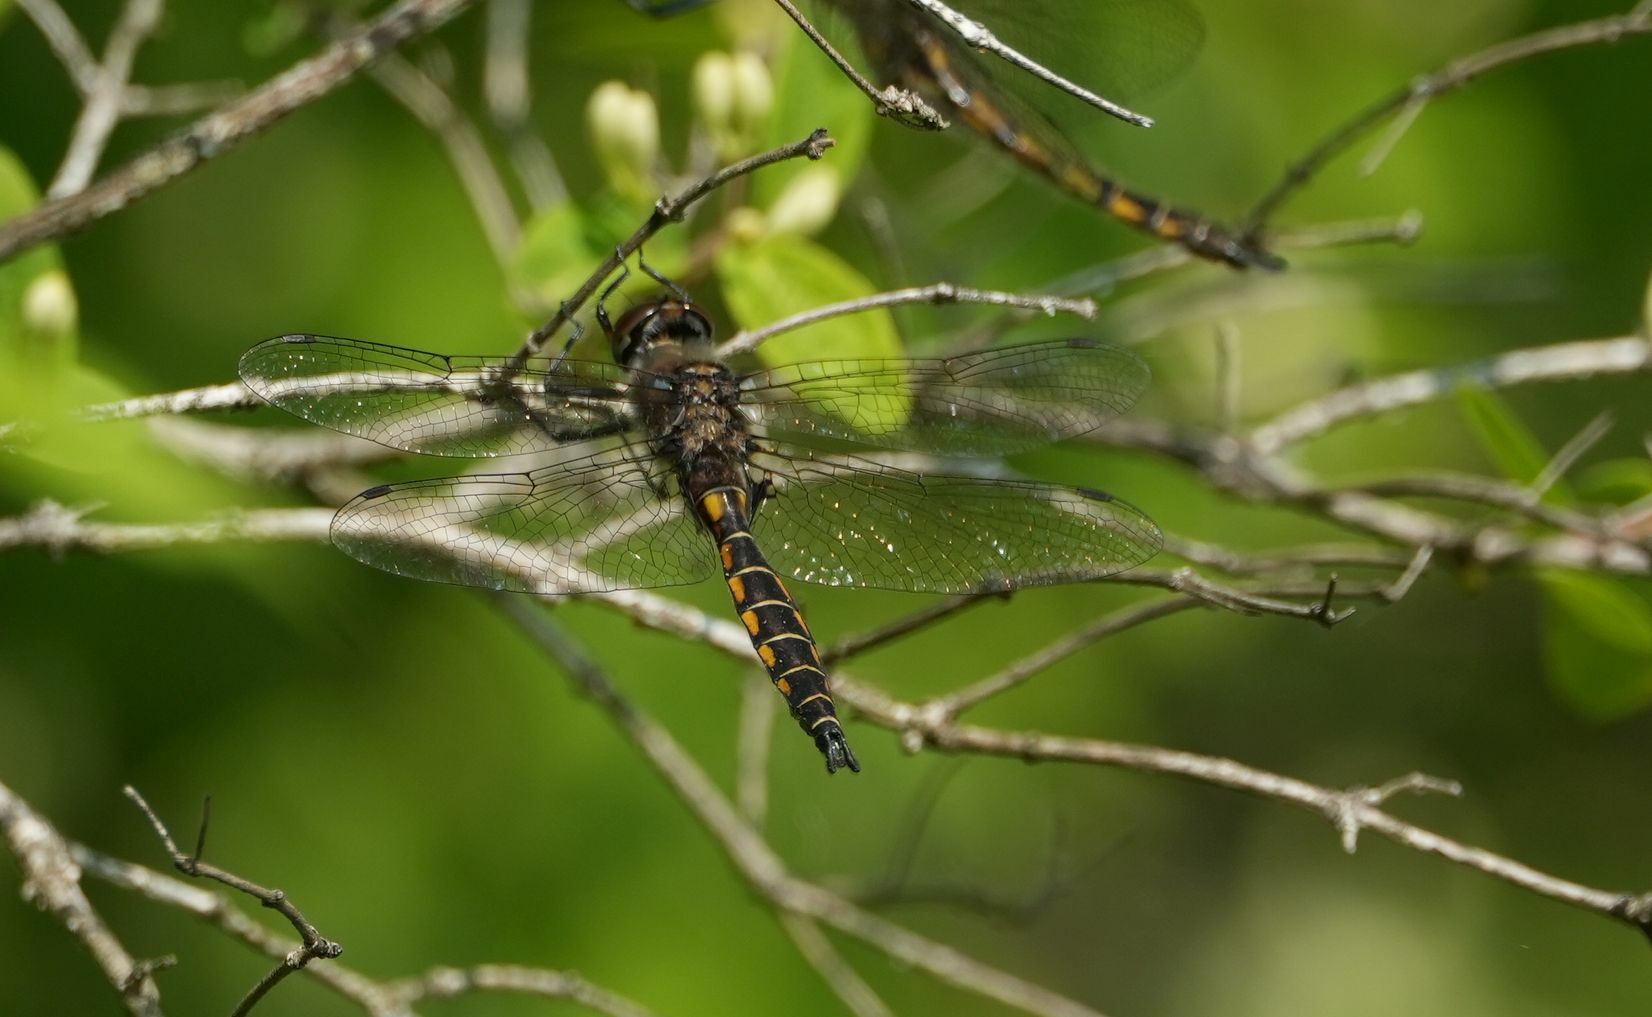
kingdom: Animalia
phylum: Arthropoda
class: Insecta
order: Odonata
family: Corduliidae
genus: Epitheca
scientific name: Epitheca spinigera
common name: Spiny baskettail
